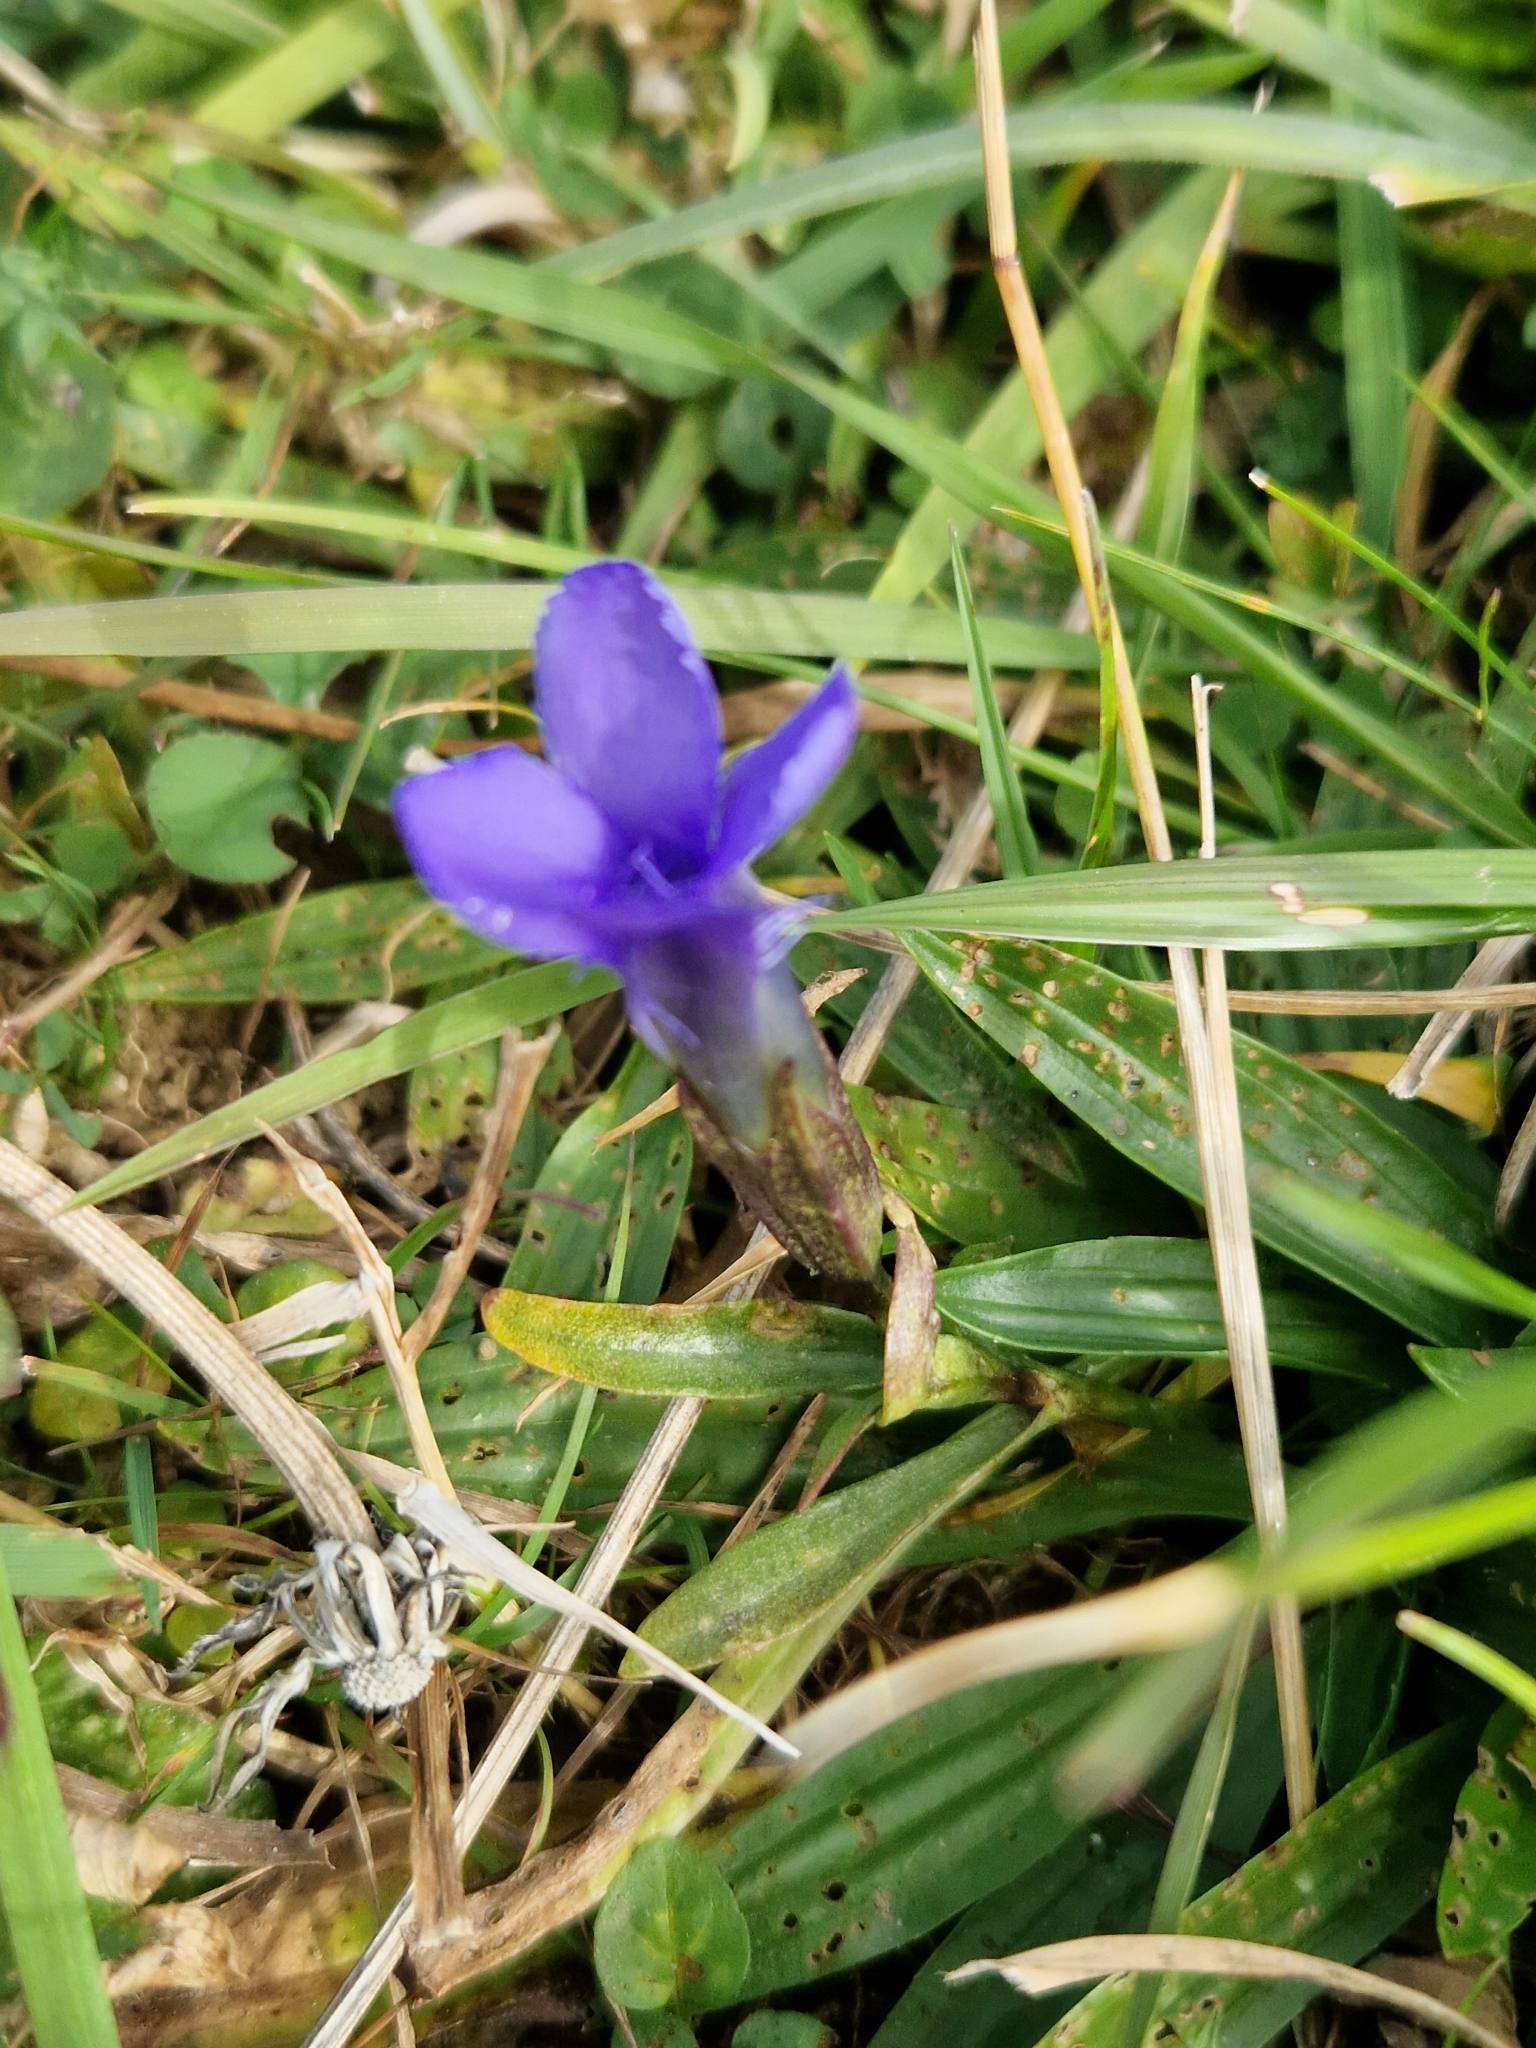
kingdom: Plantae
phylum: Tracheophyta
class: Magnoliopsida
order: Gentianales
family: Gentianaceae
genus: Gentianopsis
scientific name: Gentianopsis ciliata
